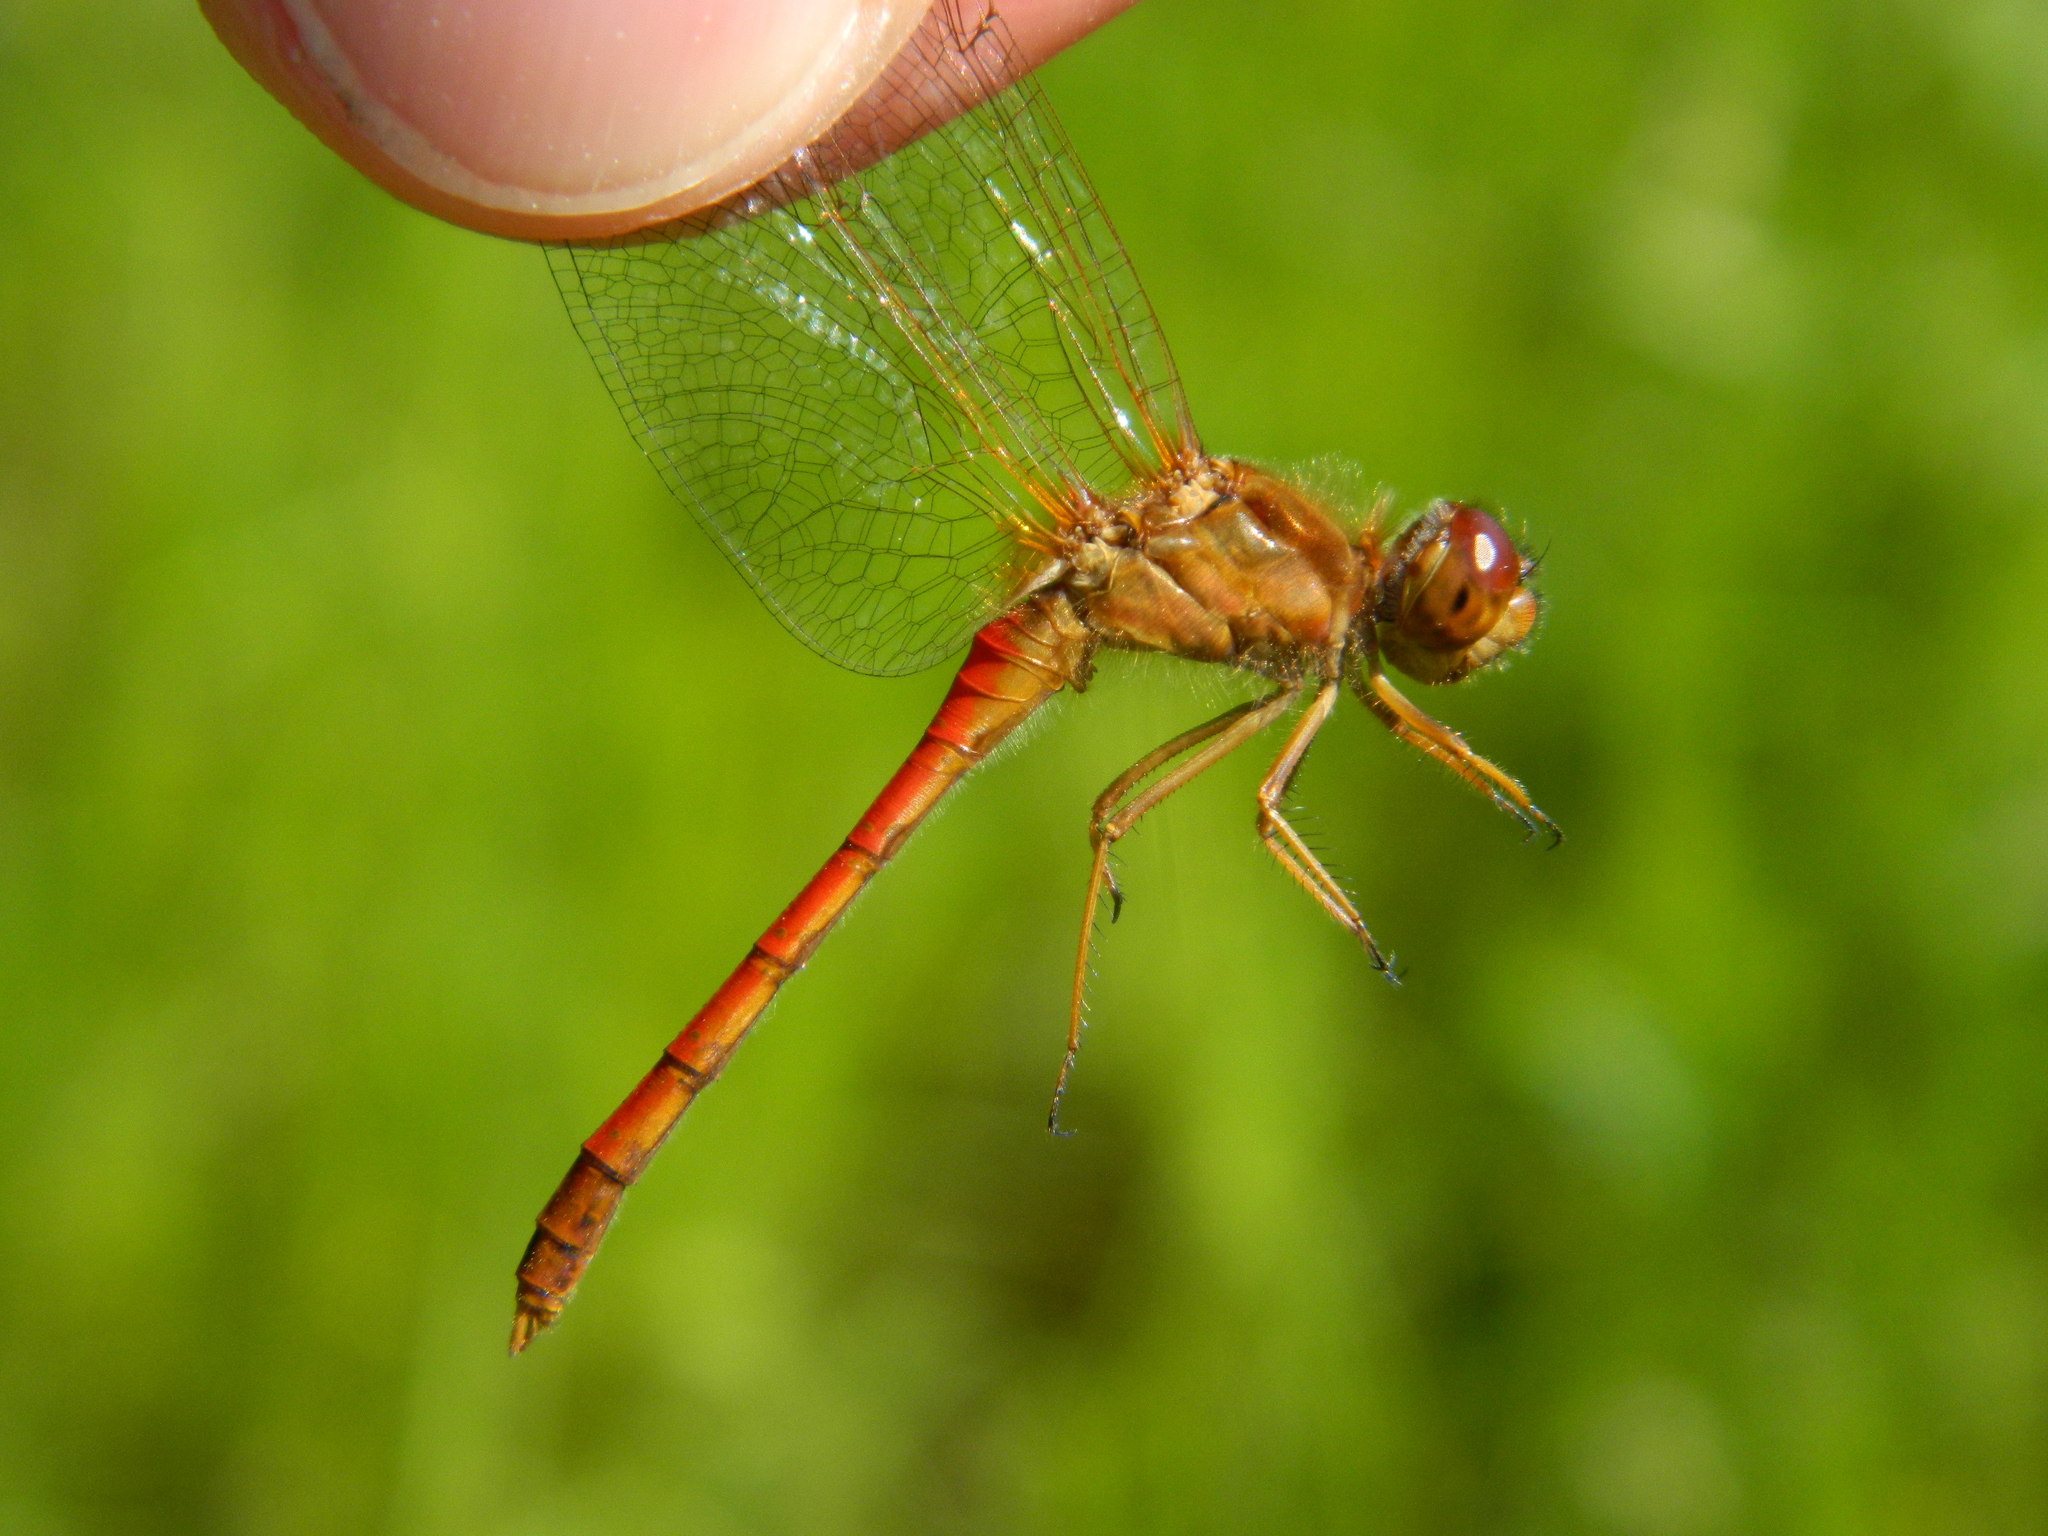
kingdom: Animalia
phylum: Arthropoda
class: Insecta
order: Odonata
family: Libellulidae
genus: Sympetrum
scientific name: Sympetrum vicinum
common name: Autumn meadowhawk
